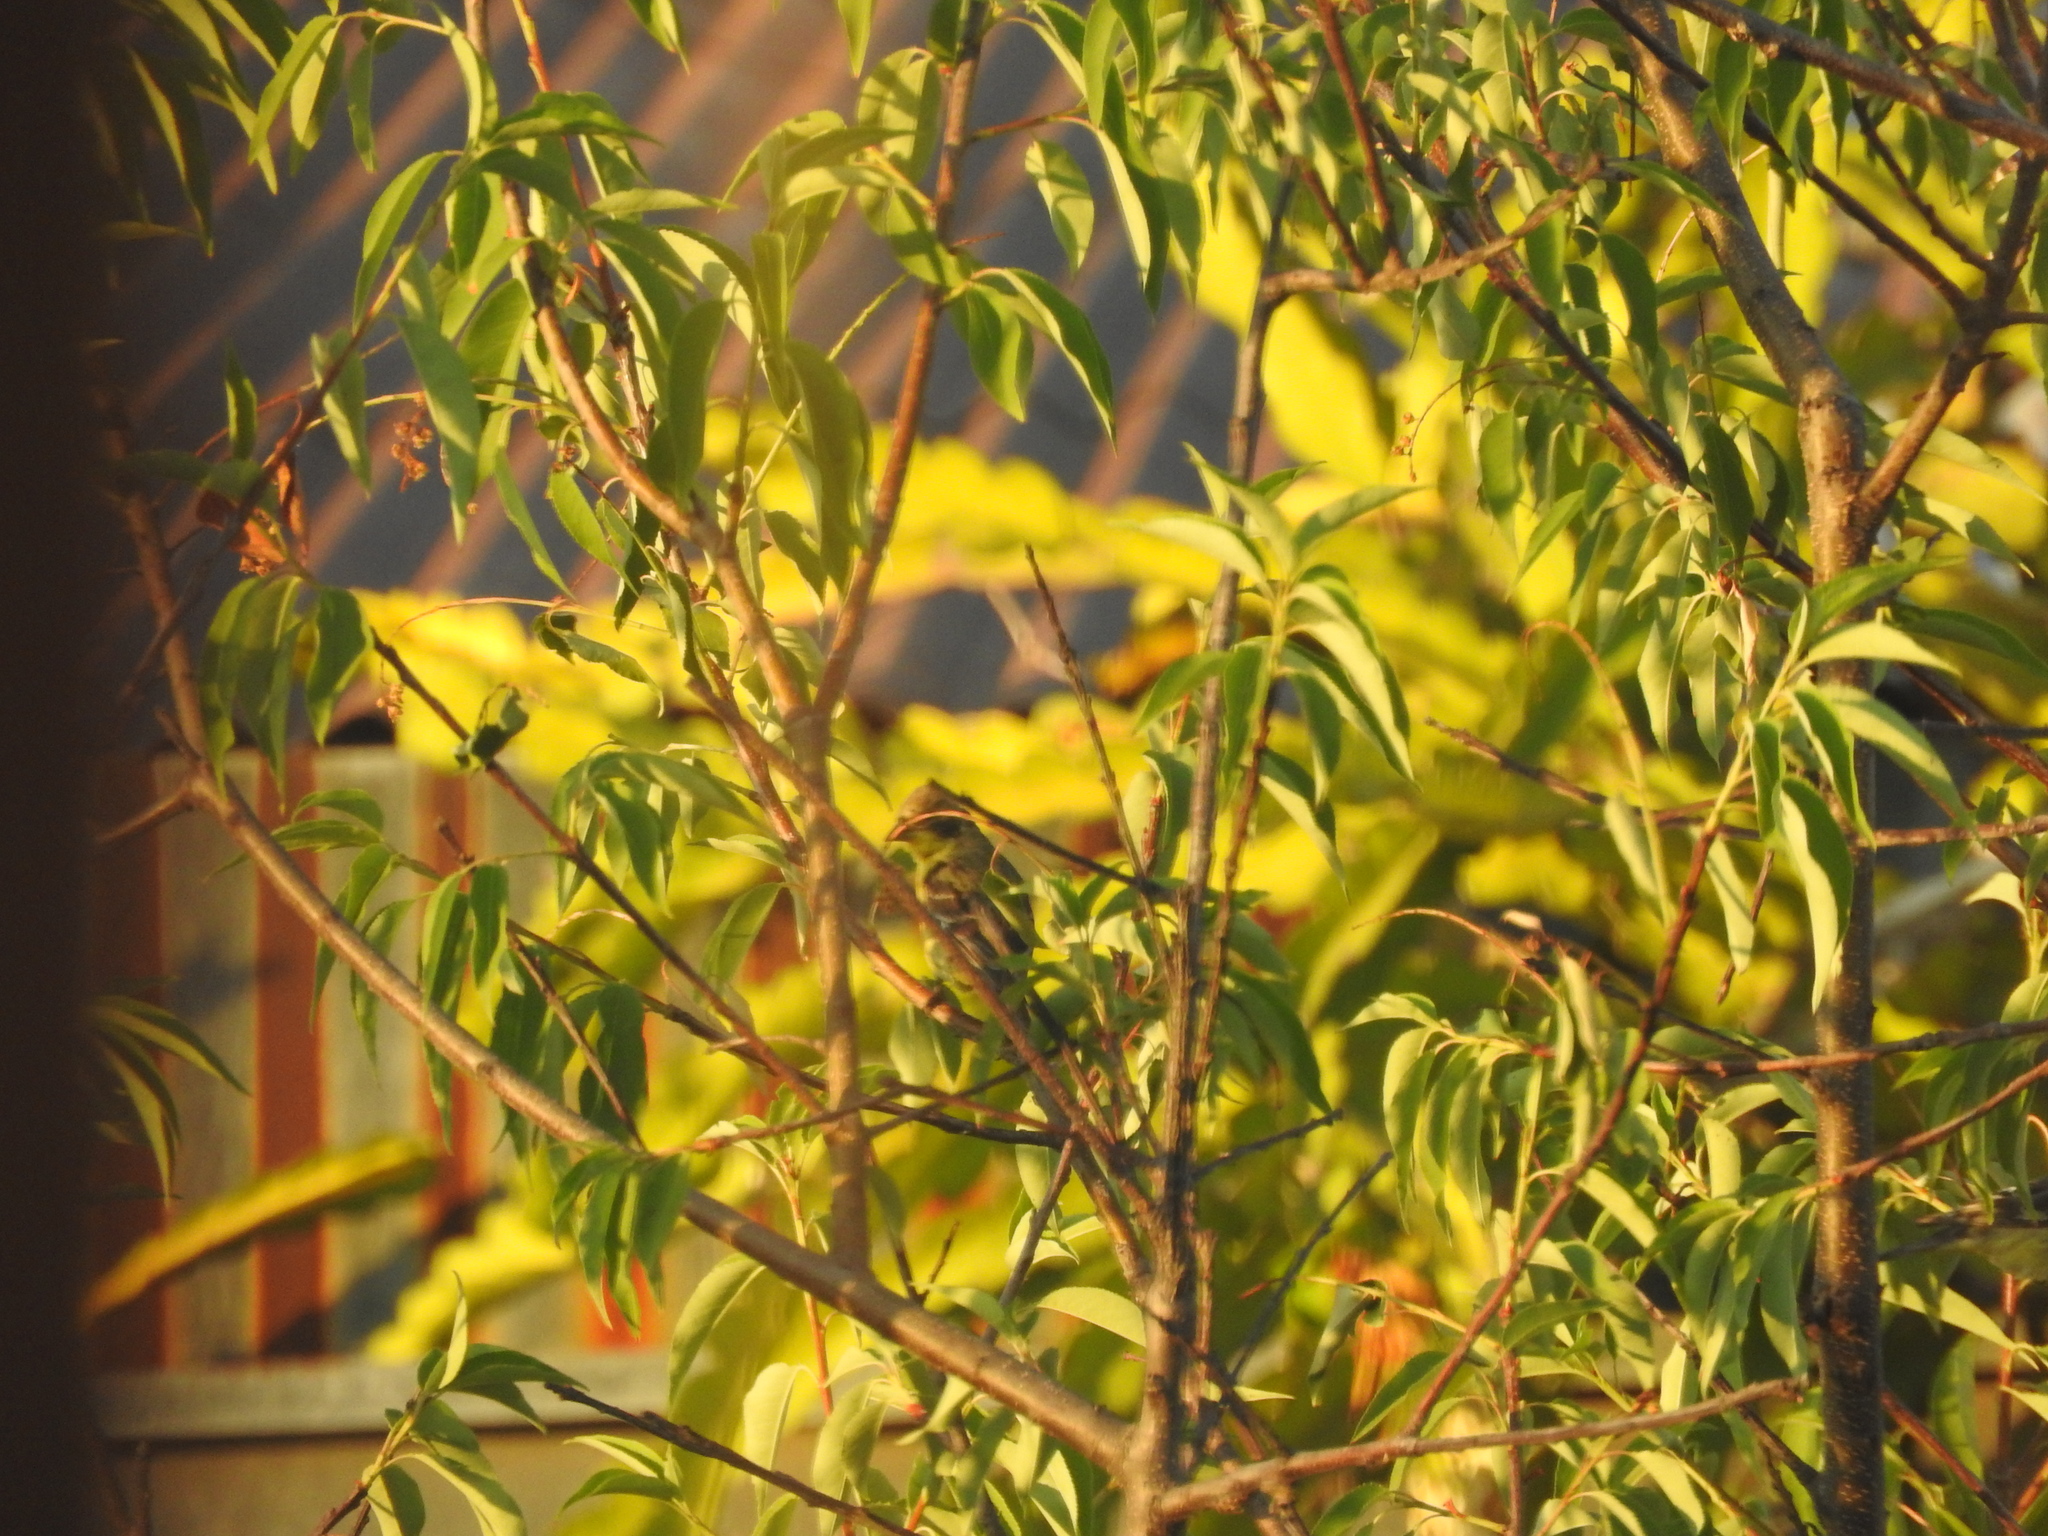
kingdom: Animalia
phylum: Chordata
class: Aves
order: Passeriformes
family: Fringillidae
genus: Spinus
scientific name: Spinus psaltria
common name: Lesser goldfinch
